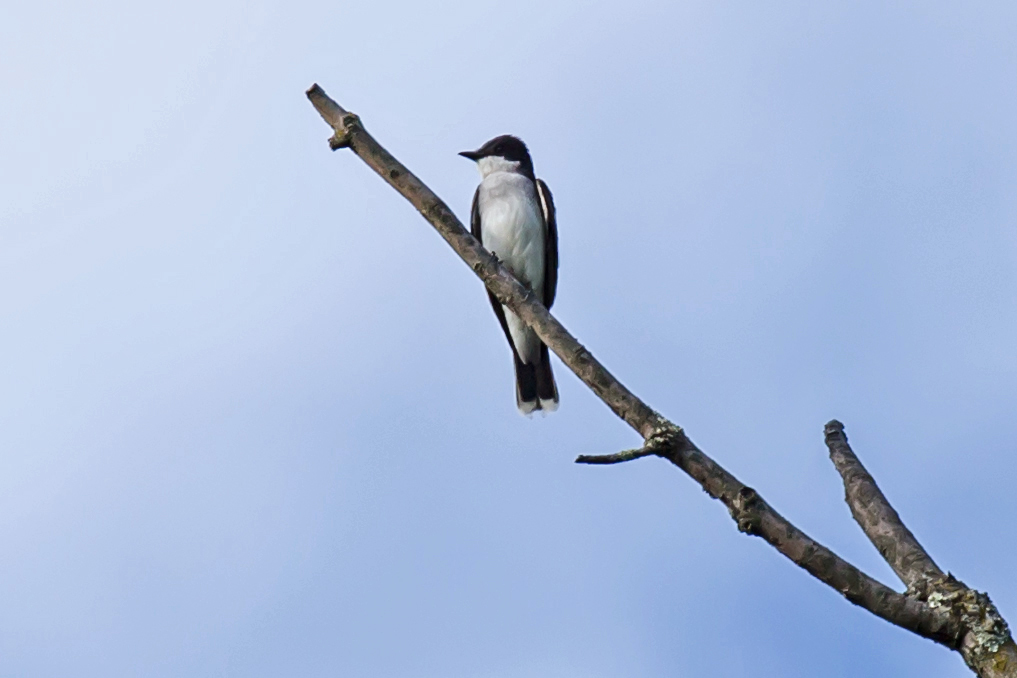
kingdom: Animalia
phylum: Chordata
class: Aves
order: Passeriformes
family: Tyrannidae
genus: Tyrannus
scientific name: Tyrannus tyrannus
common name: Eastern kingbird
